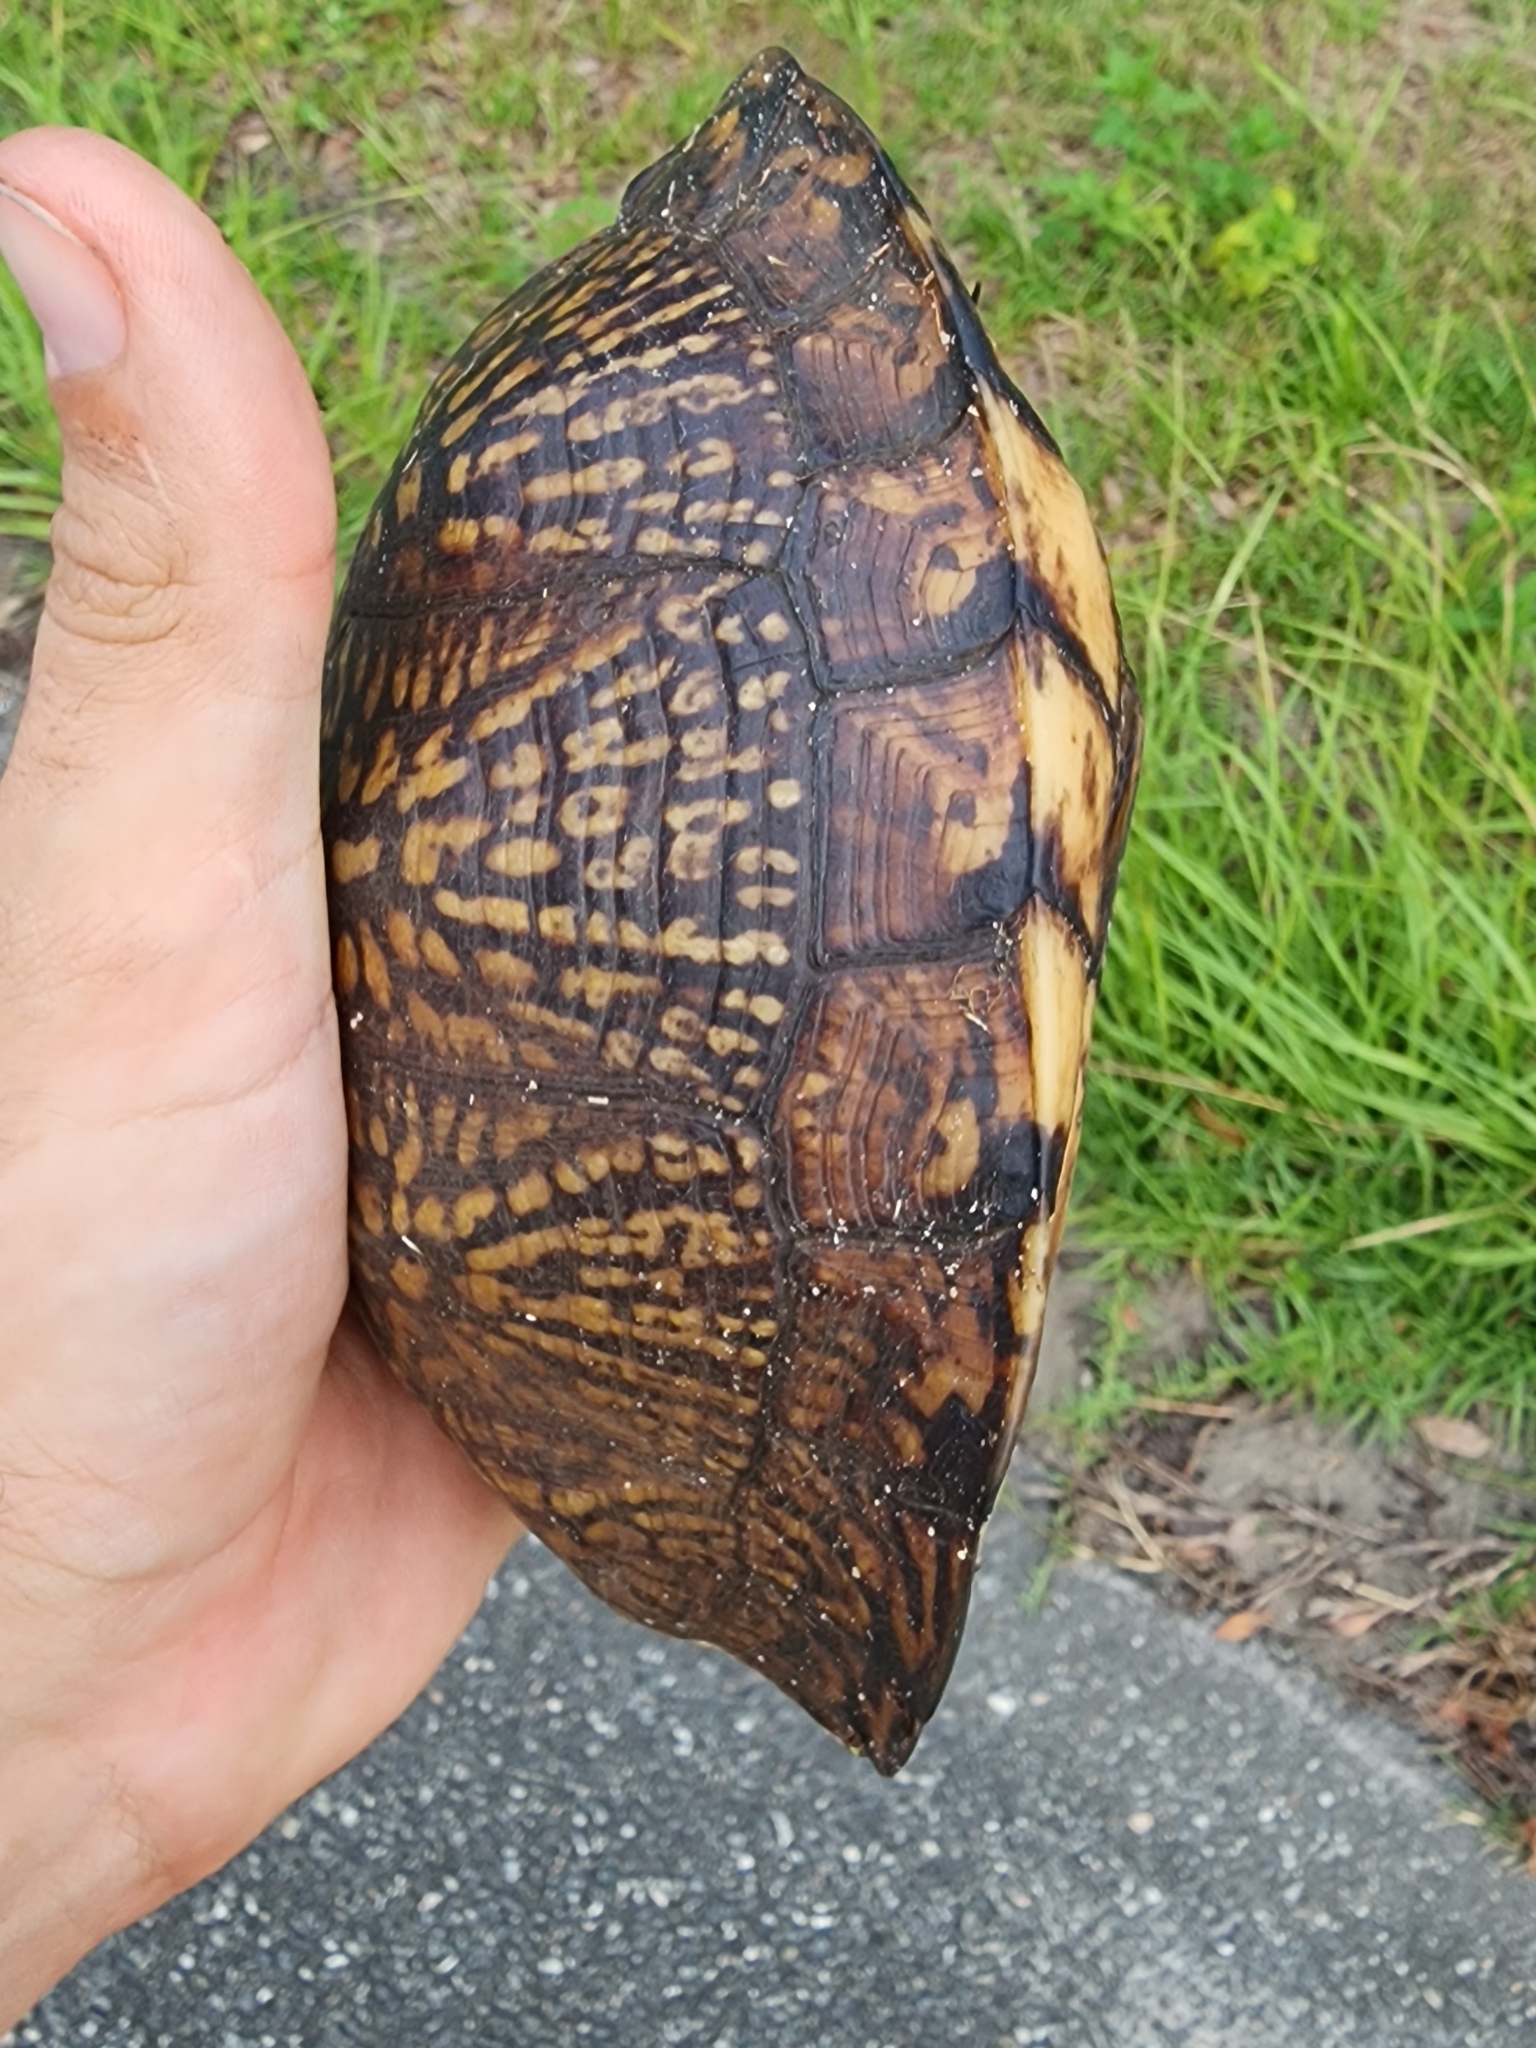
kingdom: Animalia
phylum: Chordata
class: Testudines
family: Emydidae
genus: Terrapene
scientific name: Terrapene carolina
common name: Common box turtle
